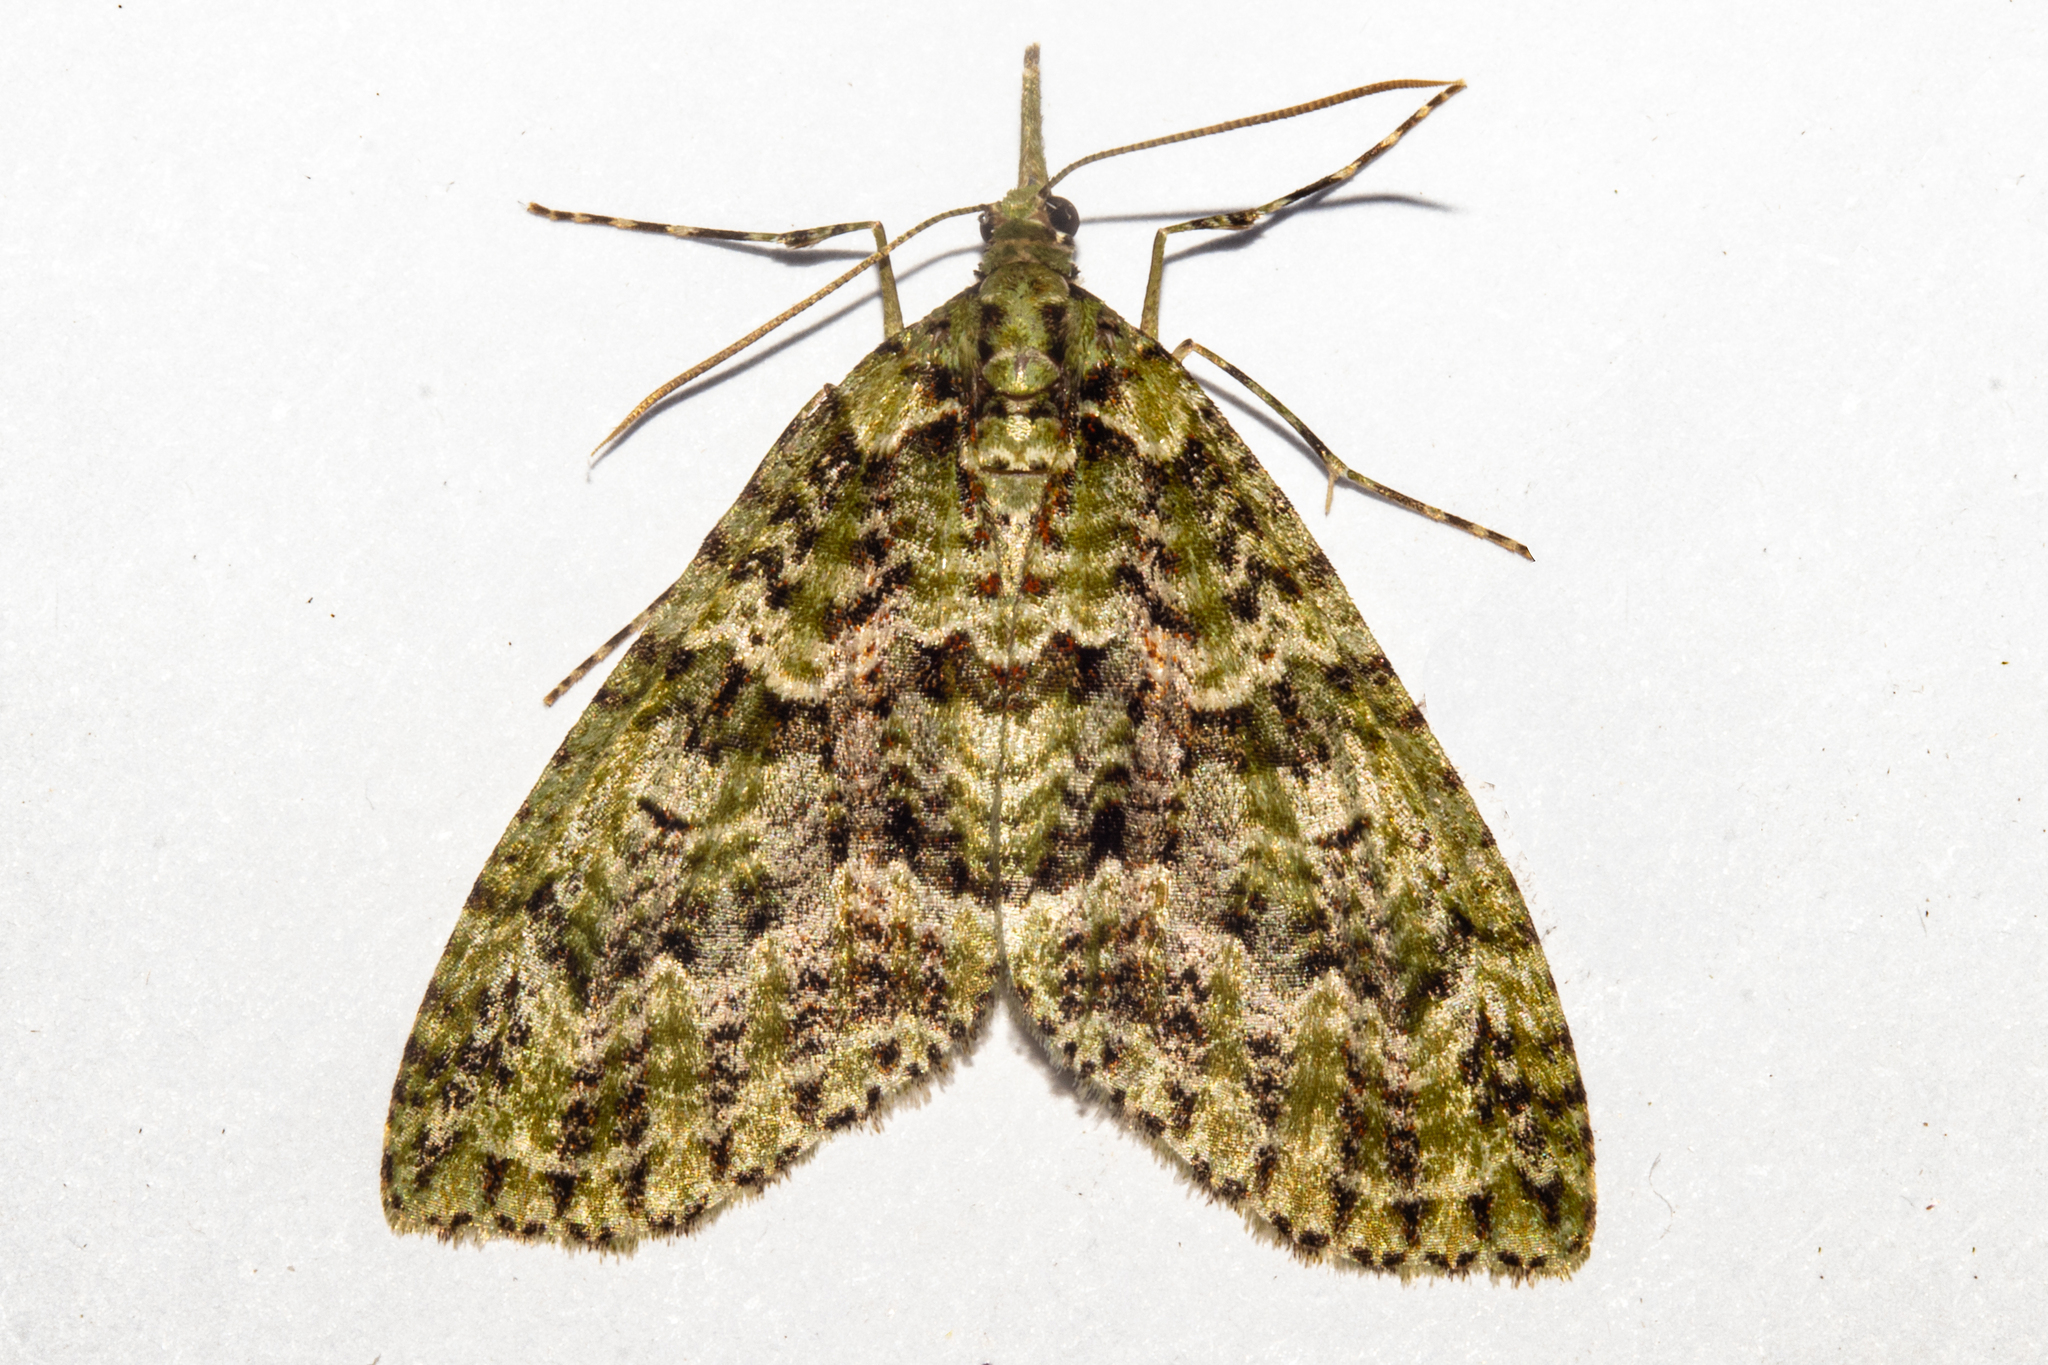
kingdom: Animalia
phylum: Arthropoda
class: Insecta
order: Lepidoptera
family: Geometridae
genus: Tatosoma
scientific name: Tatosoma tipulata
